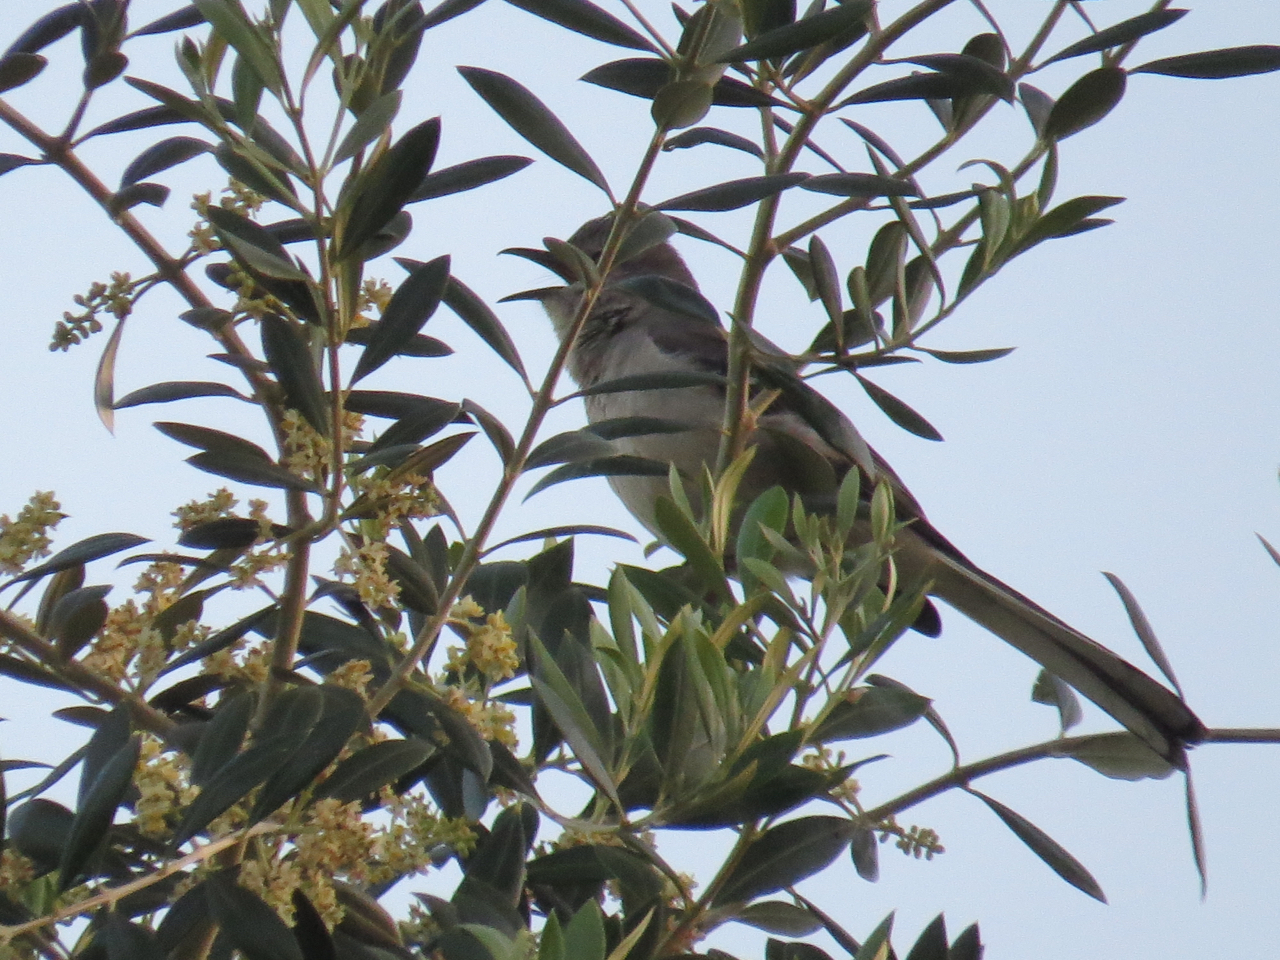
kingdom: Animalia
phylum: Chordata
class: Aves
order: Passeriformes
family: Mimidae
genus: Mimus
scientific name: Mimus polyglottos
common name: Northern mockingbird
